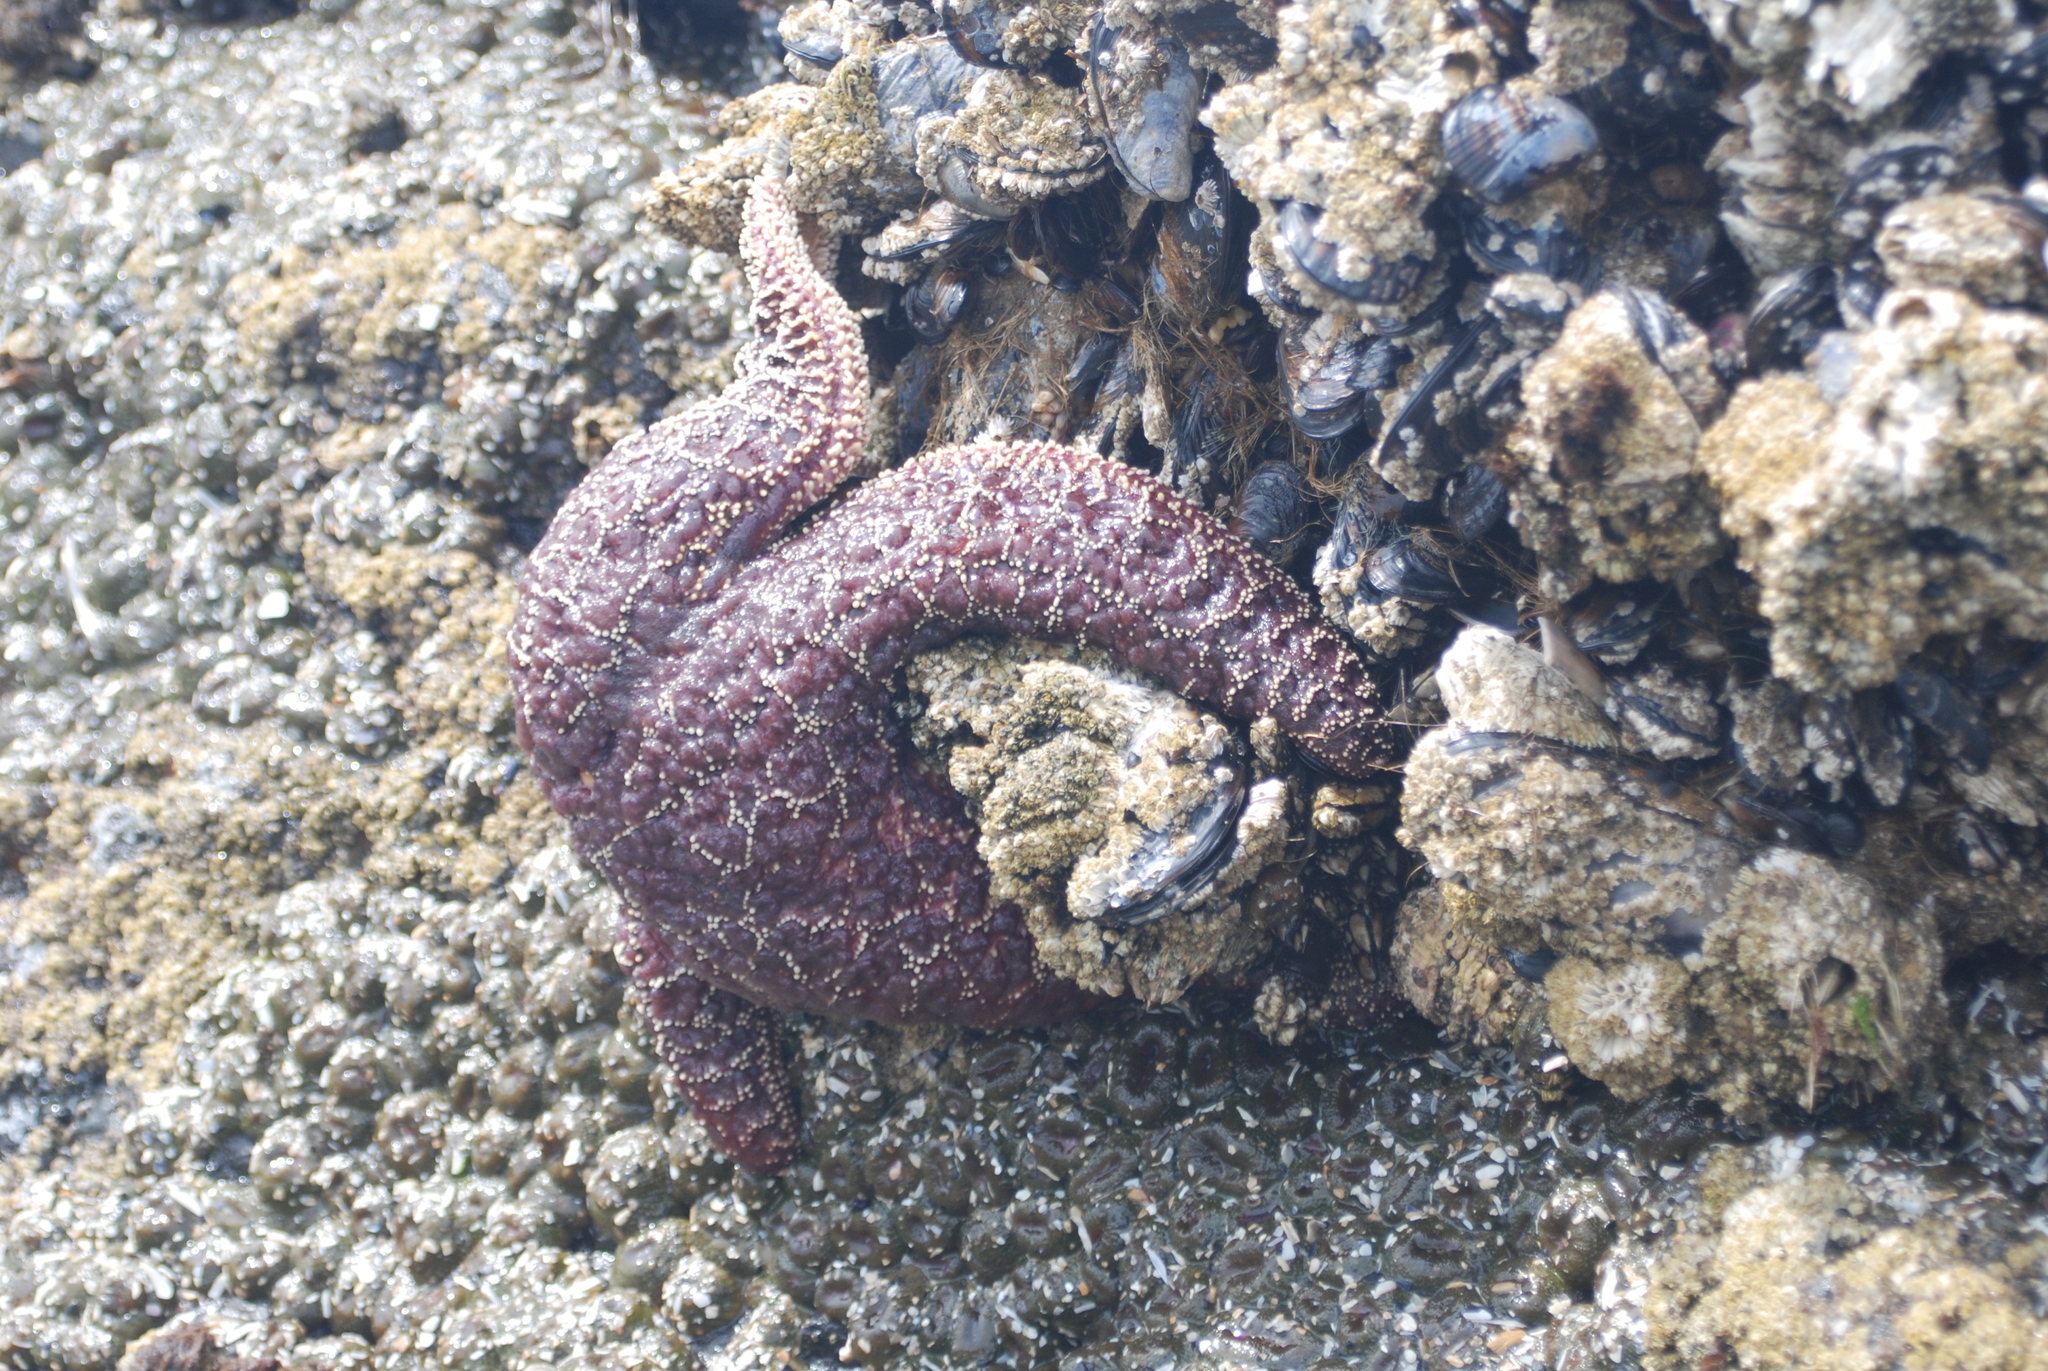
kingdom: Animalia
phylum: Echinodermata
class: Asteroidea
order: Forcipulatida
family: Asteriidae
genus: Pisaster
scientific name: Pisaster ochraceus
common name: Ochre stars
